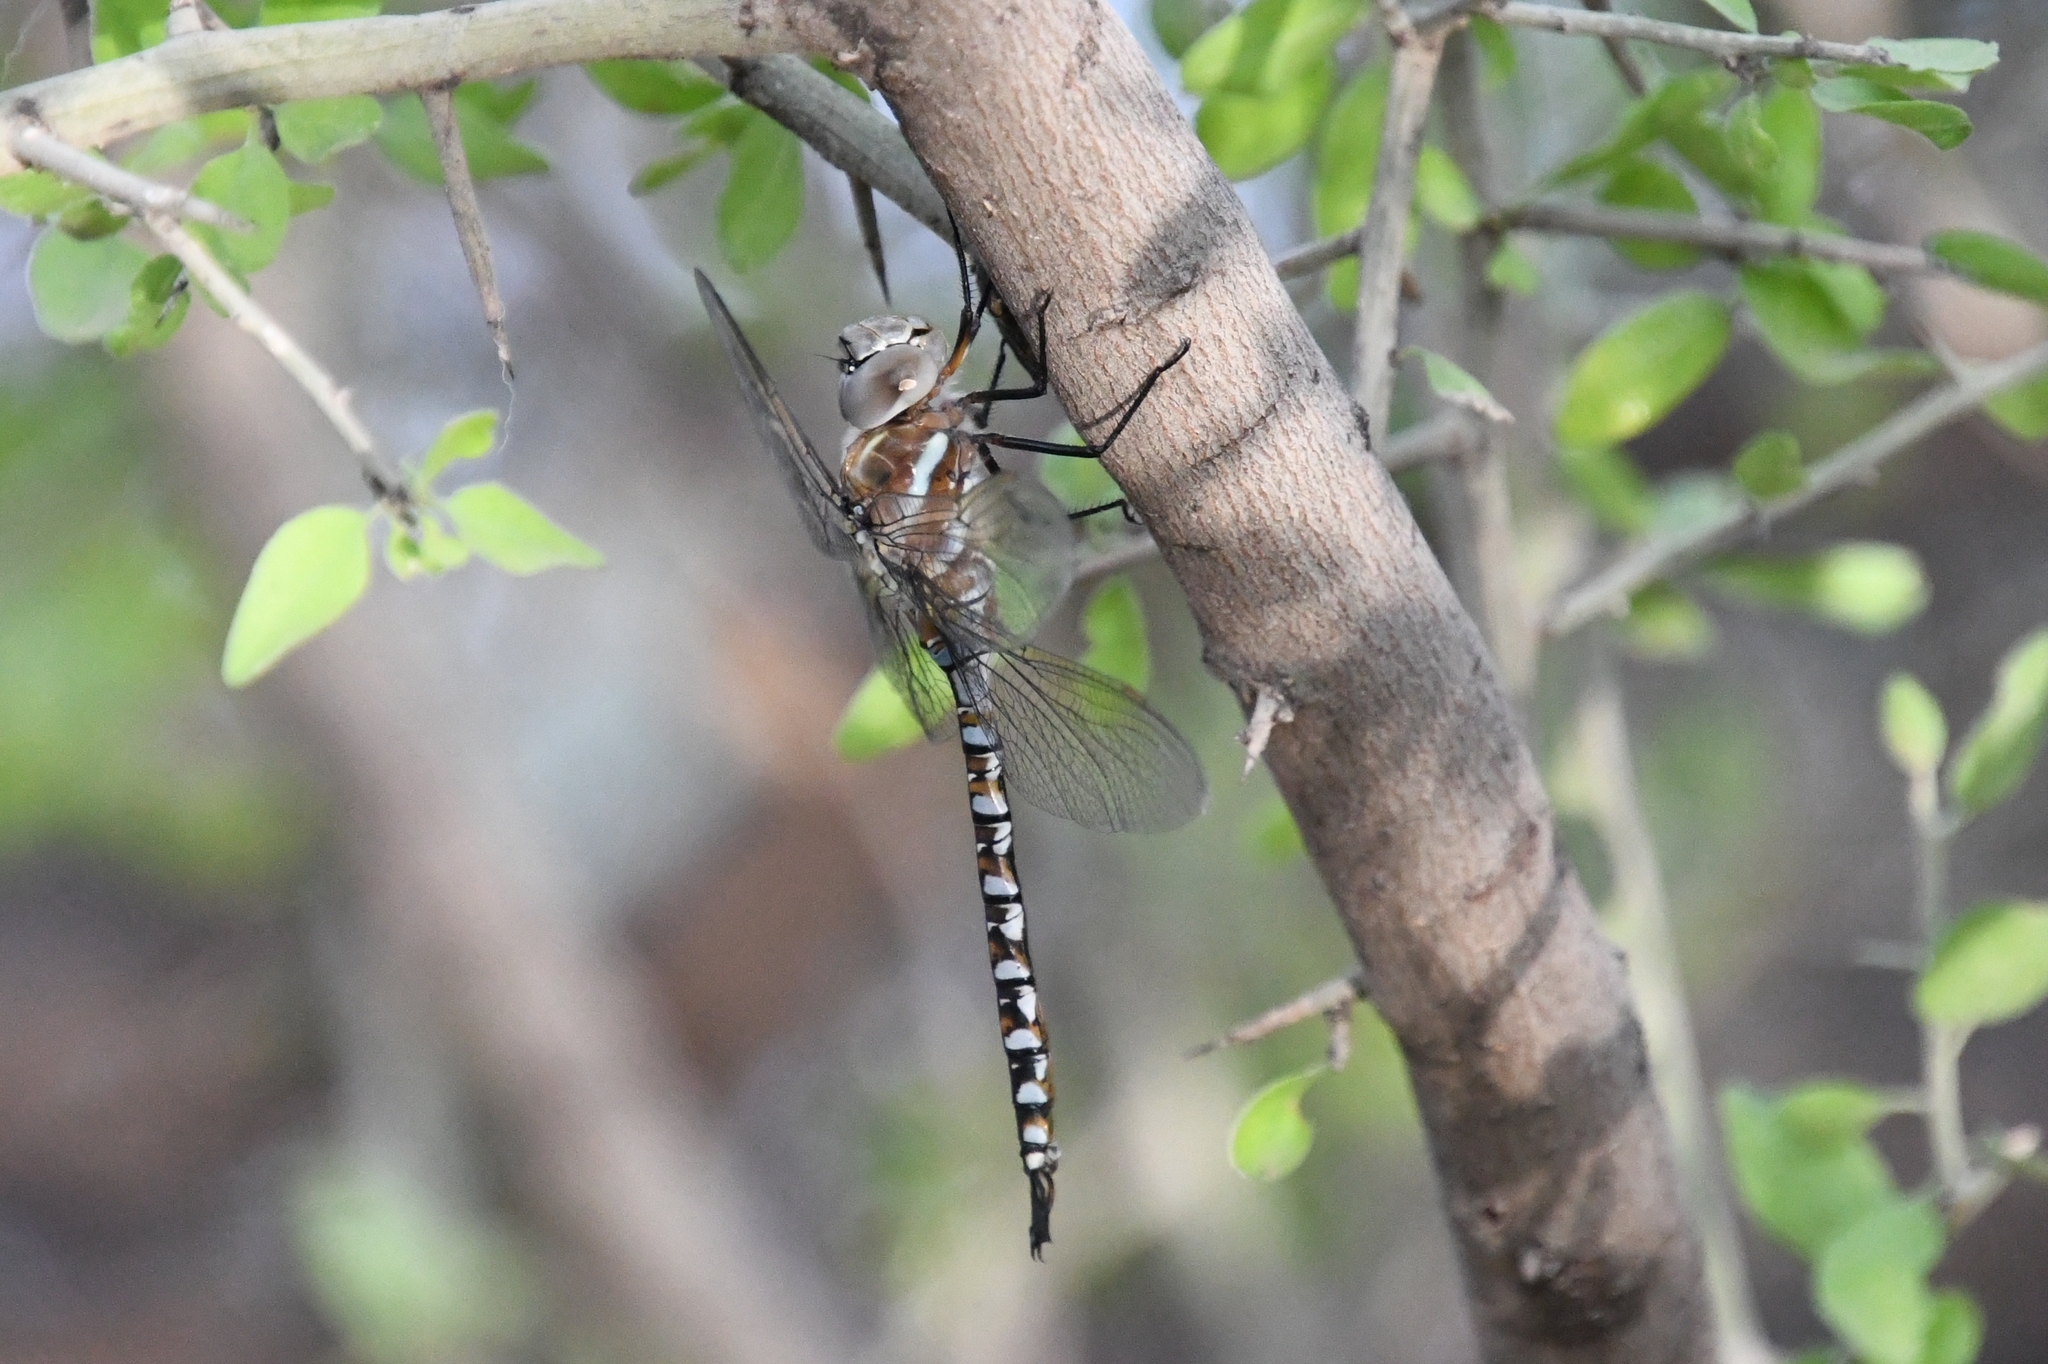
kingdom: Animalia
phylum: Arthropoda
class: Insecta
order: Odonata
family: Aeshnidae
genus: Rhionaeschna
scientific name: Rhionaeschna multicolor
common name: Blue-eyed darner
